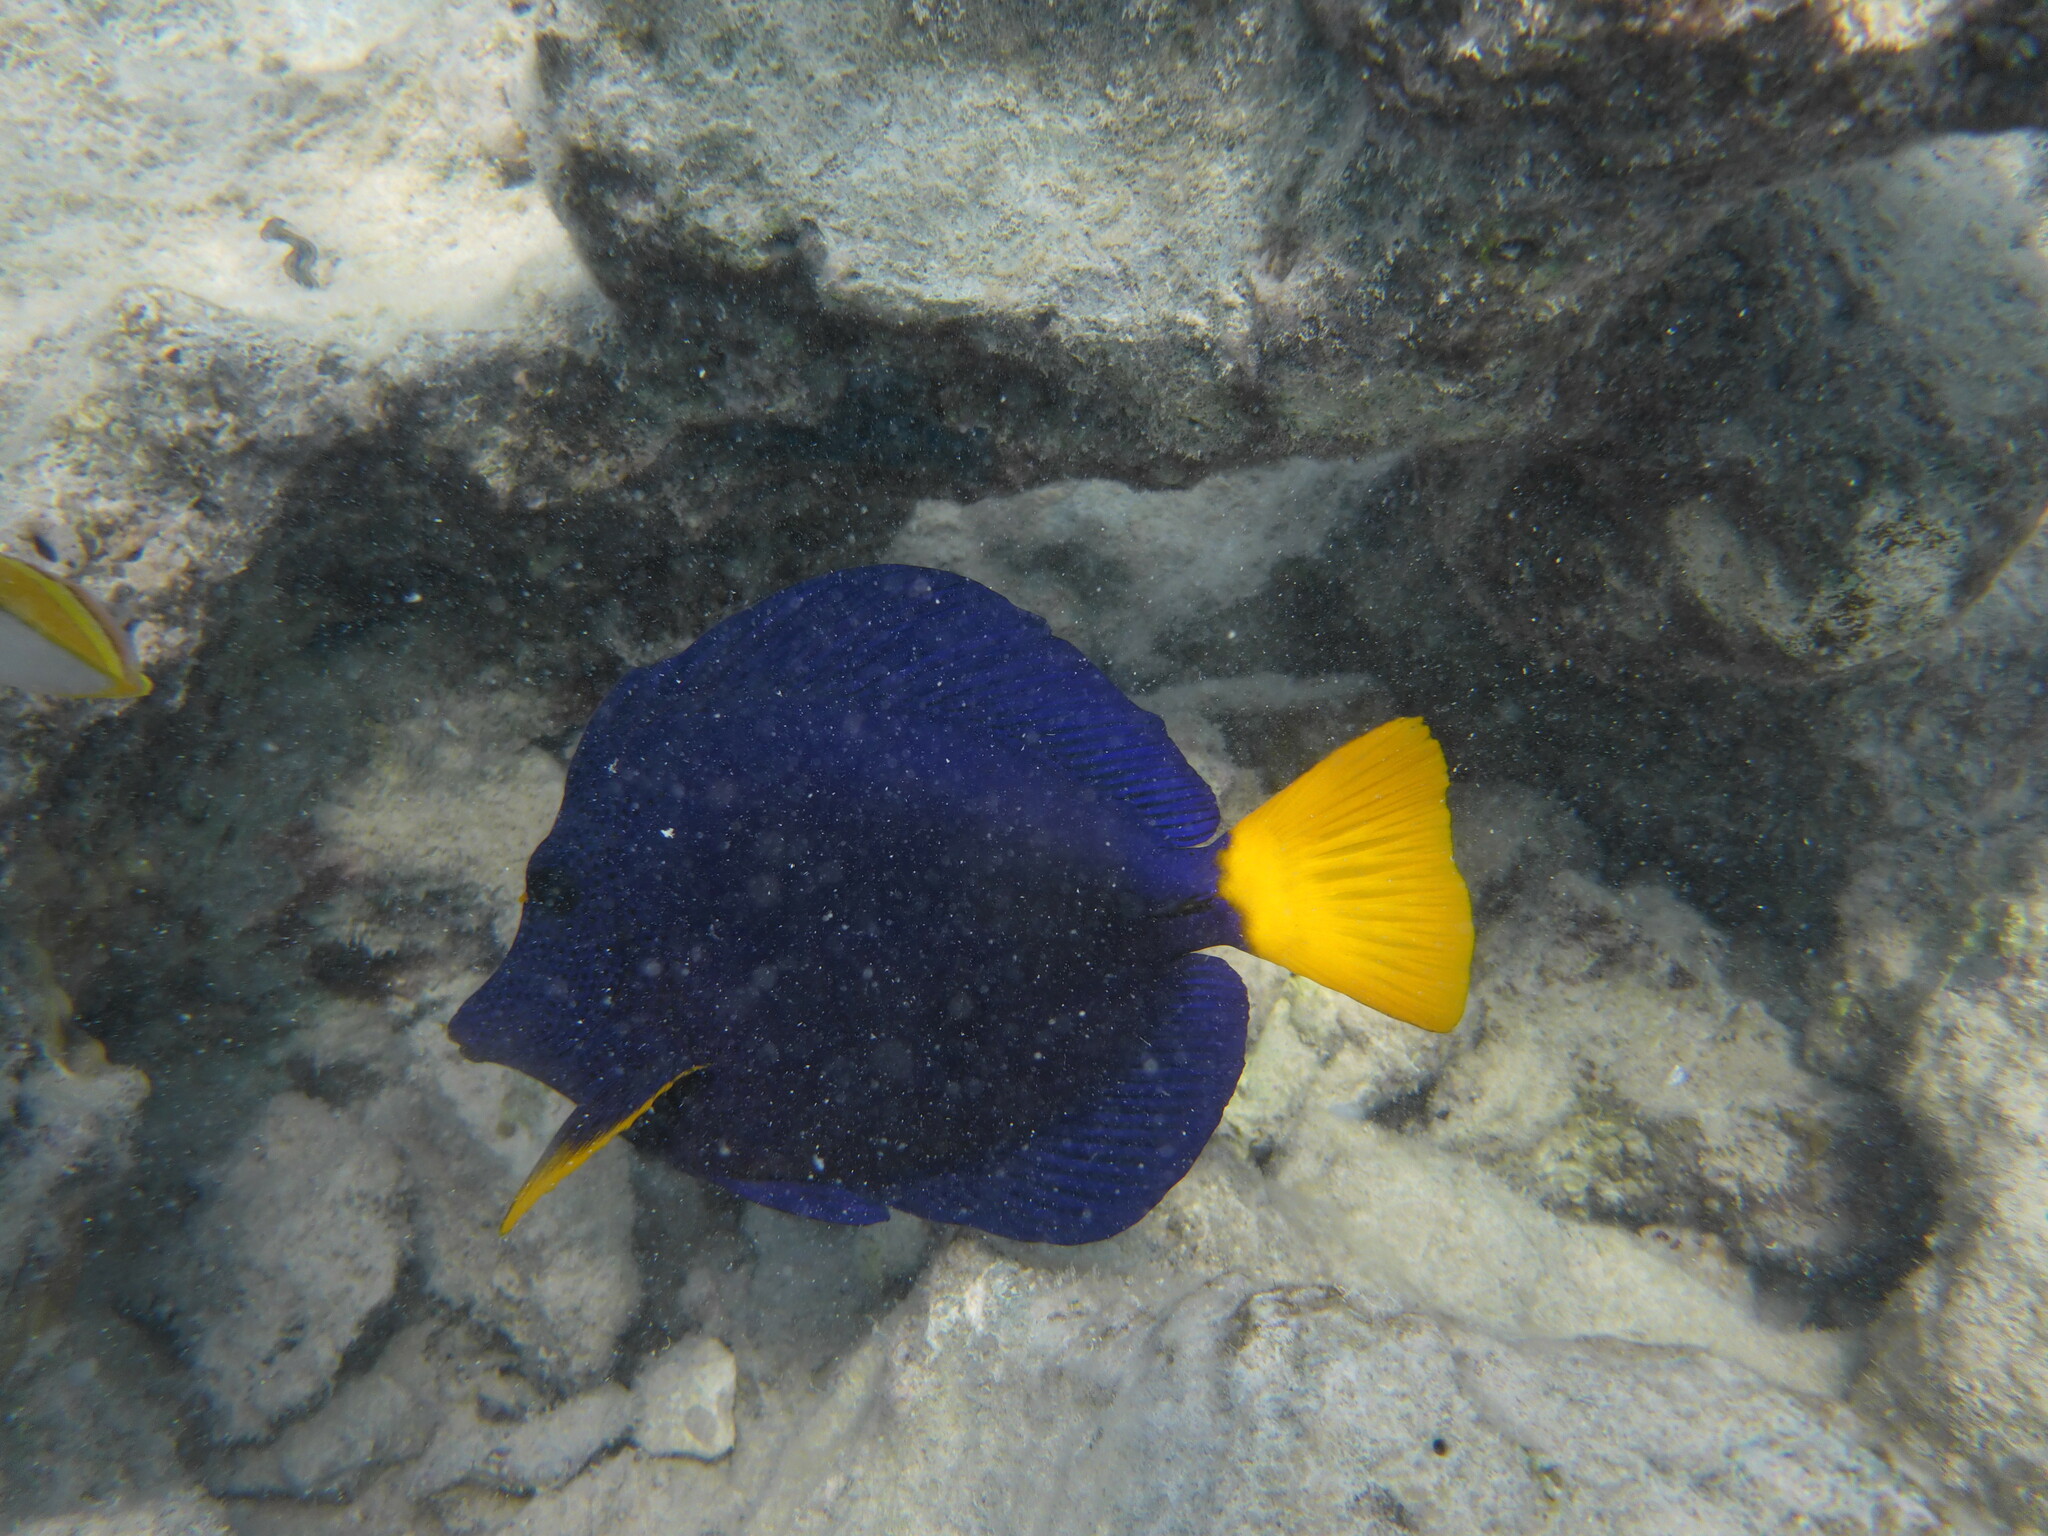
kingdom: Animalia
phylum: Chordata
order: Perciformes
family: Acanthuridae
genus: Zebrasoma
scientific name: Zebrasoma xanthurum
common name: Purple tang
